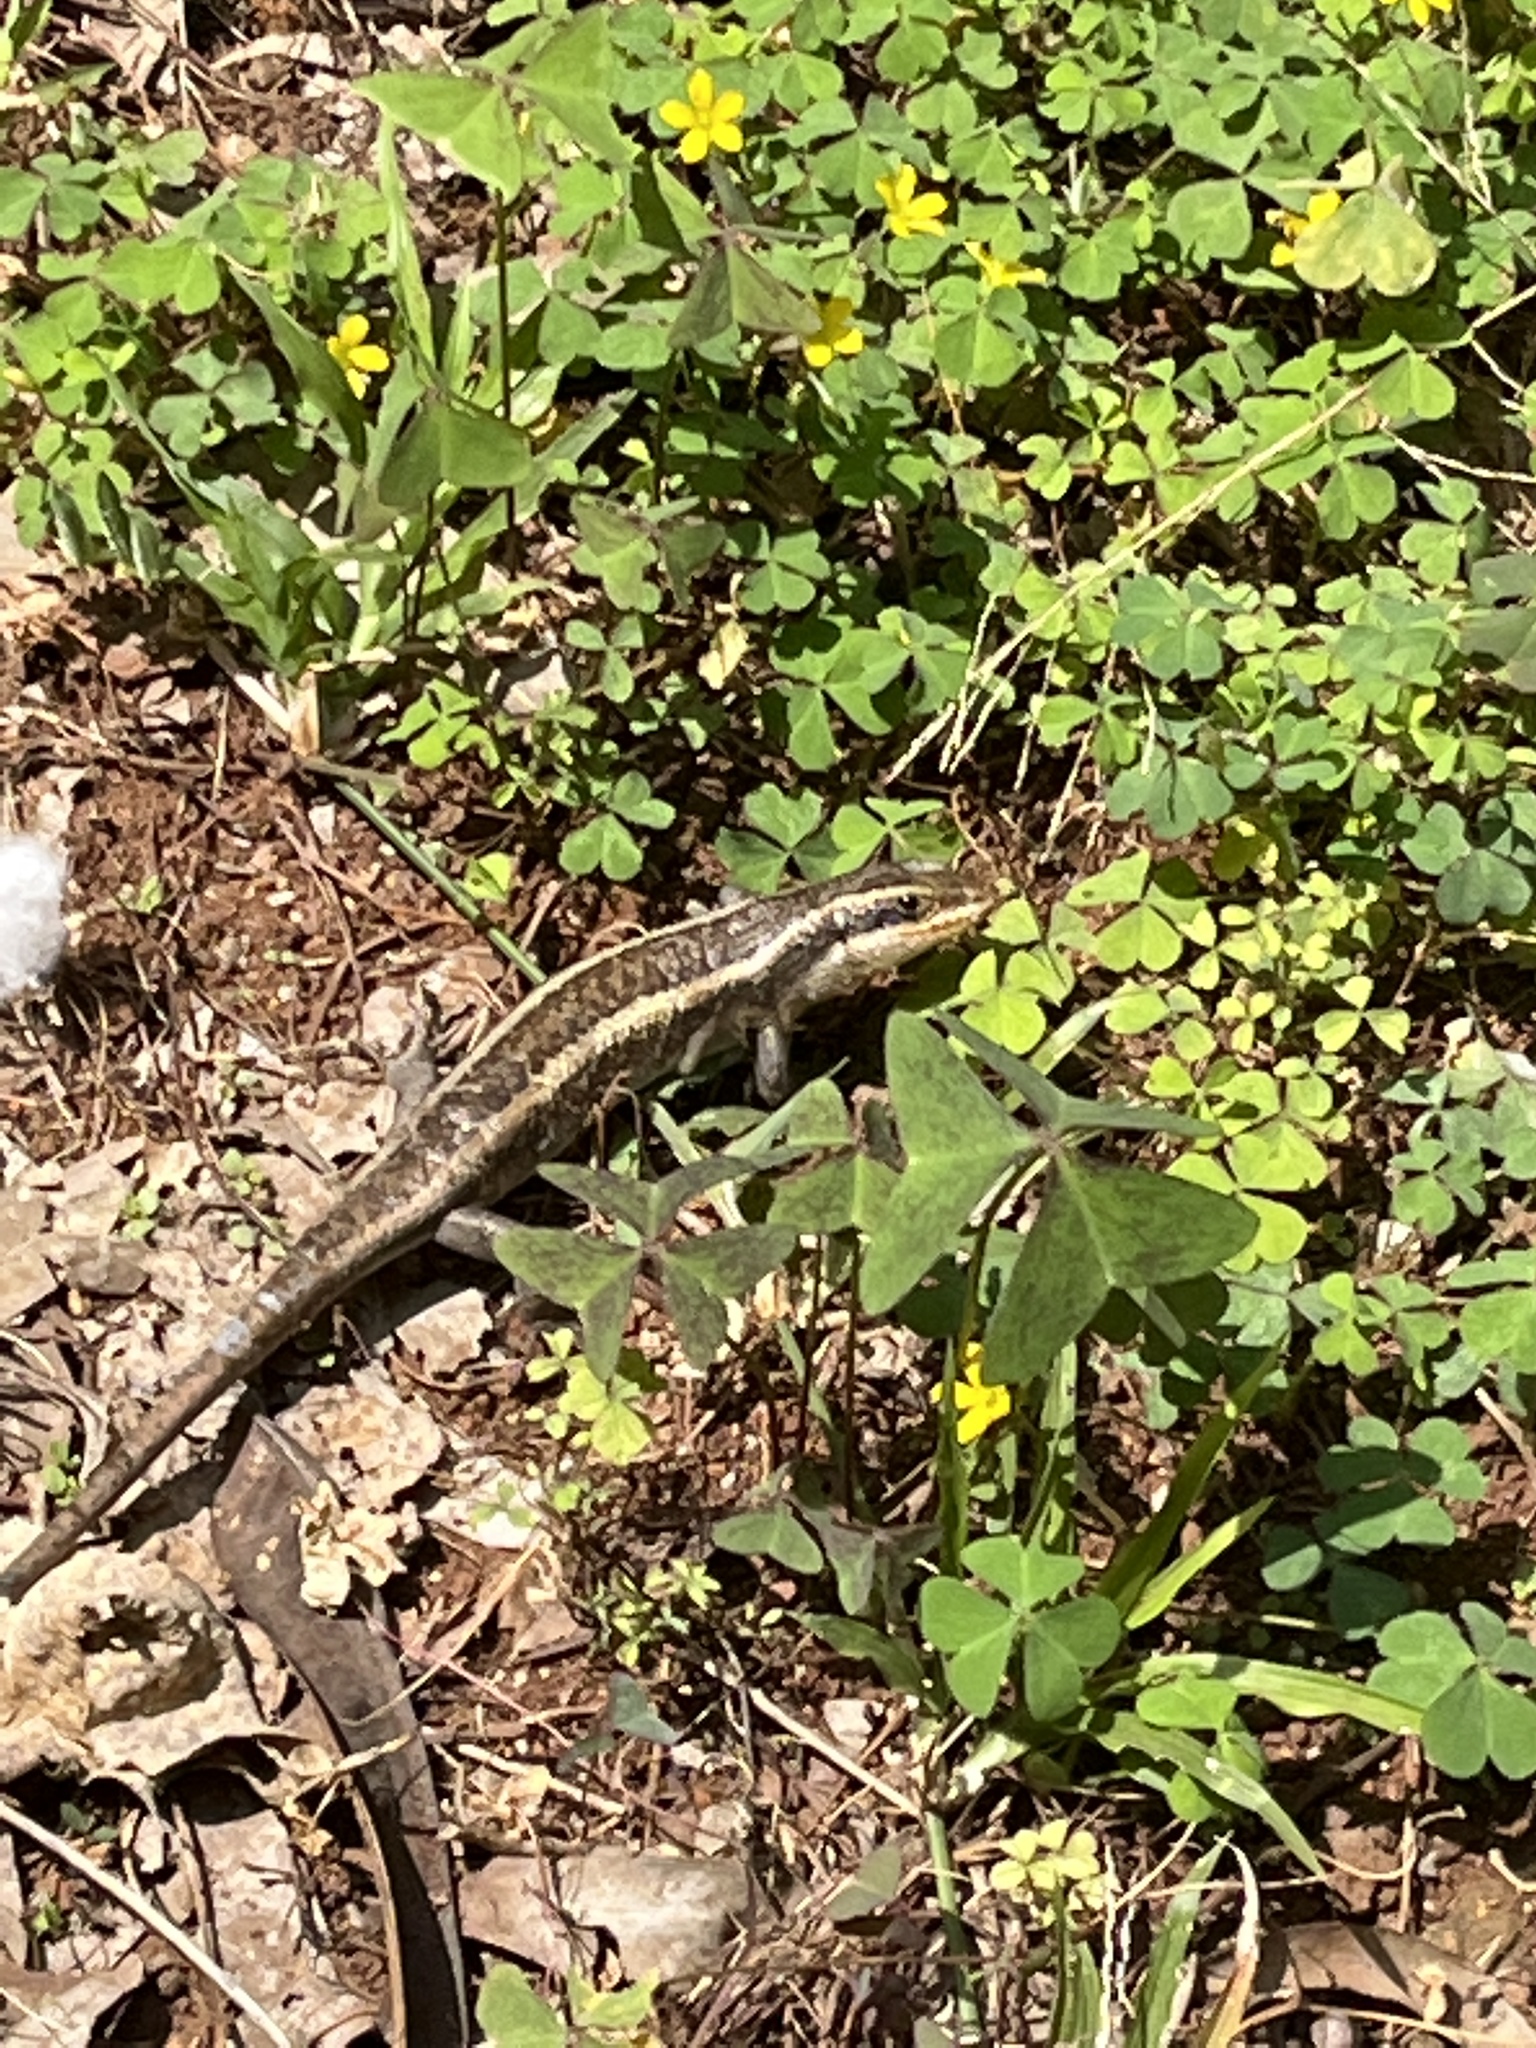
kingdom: Animalia
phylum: Chordata
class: Squamata
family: Scincidae
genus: Trachylepis
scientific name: Trachylepis striata
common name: African striped mabuya
